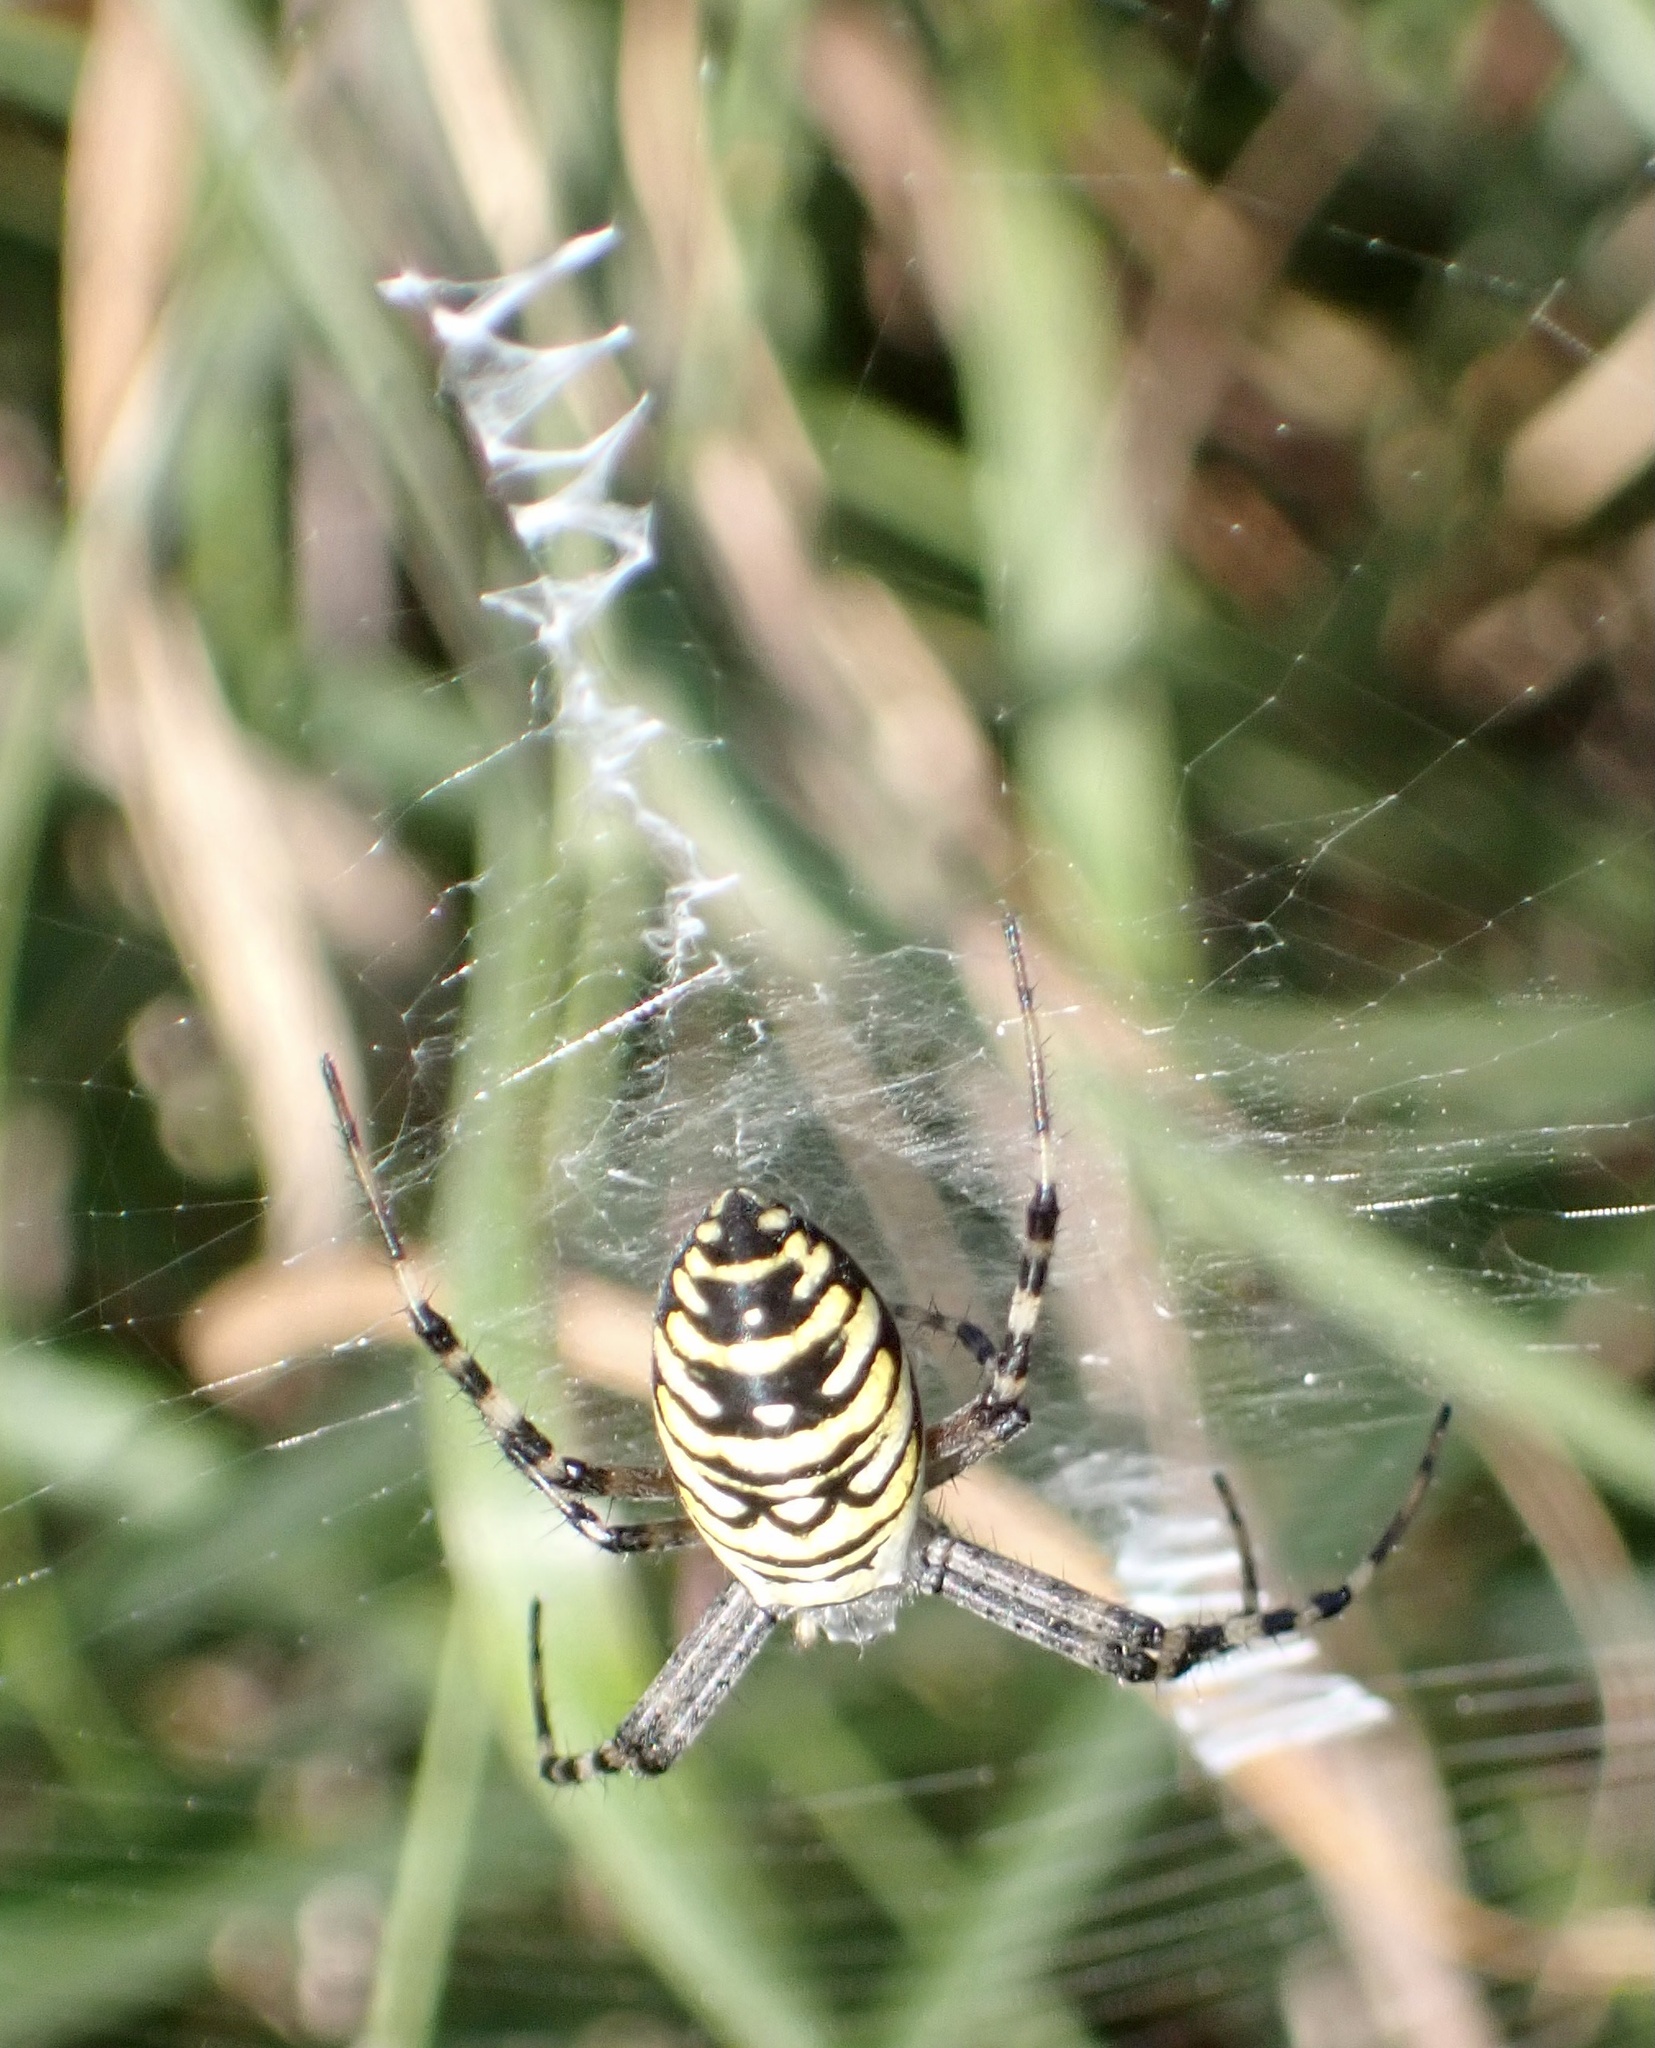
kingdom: Animalia
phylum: Arthropoda
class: Arachnida
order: Araneae
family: Araneidae
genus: Argiope
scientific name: Argiope bruennichi
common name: Wasp spider
